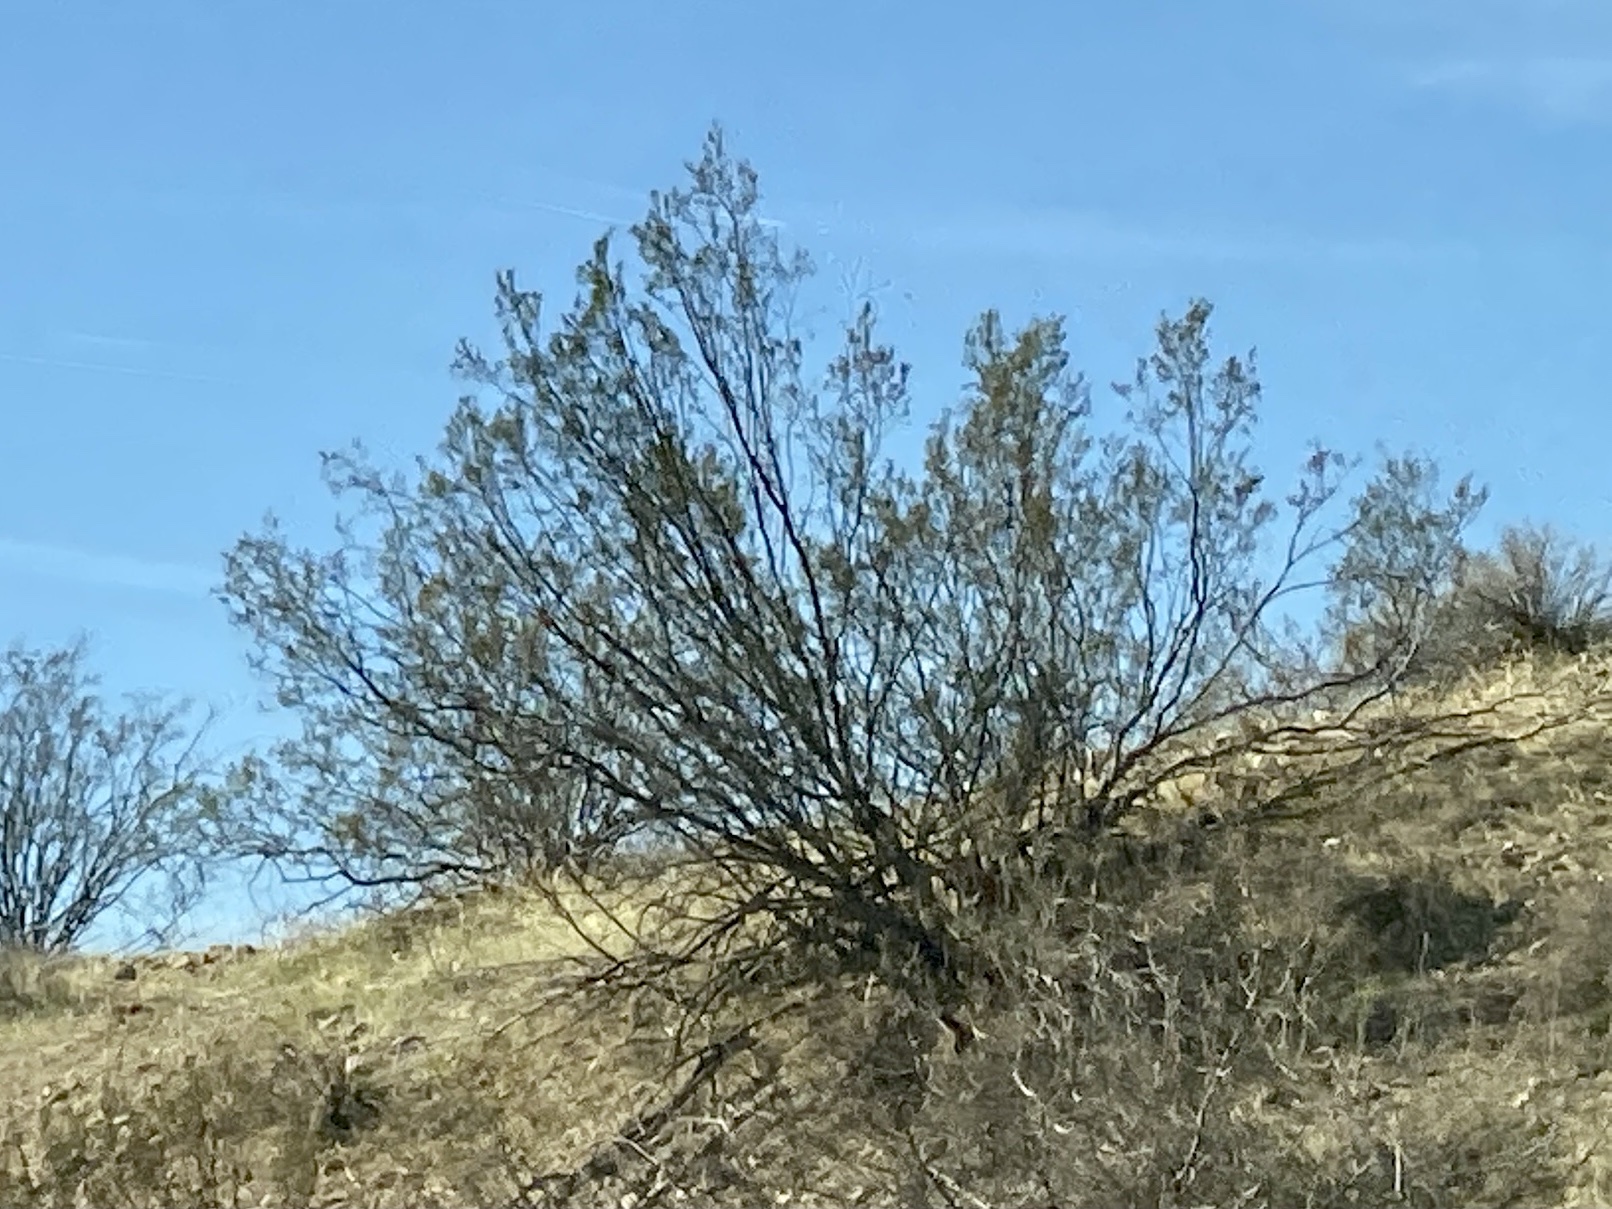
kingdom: Plantae
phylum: Tracheophyta
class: Magnoliopsida
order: Zygophyllales
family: Zygophyllaceae
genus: Larrea
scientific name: Larrea tridentata
